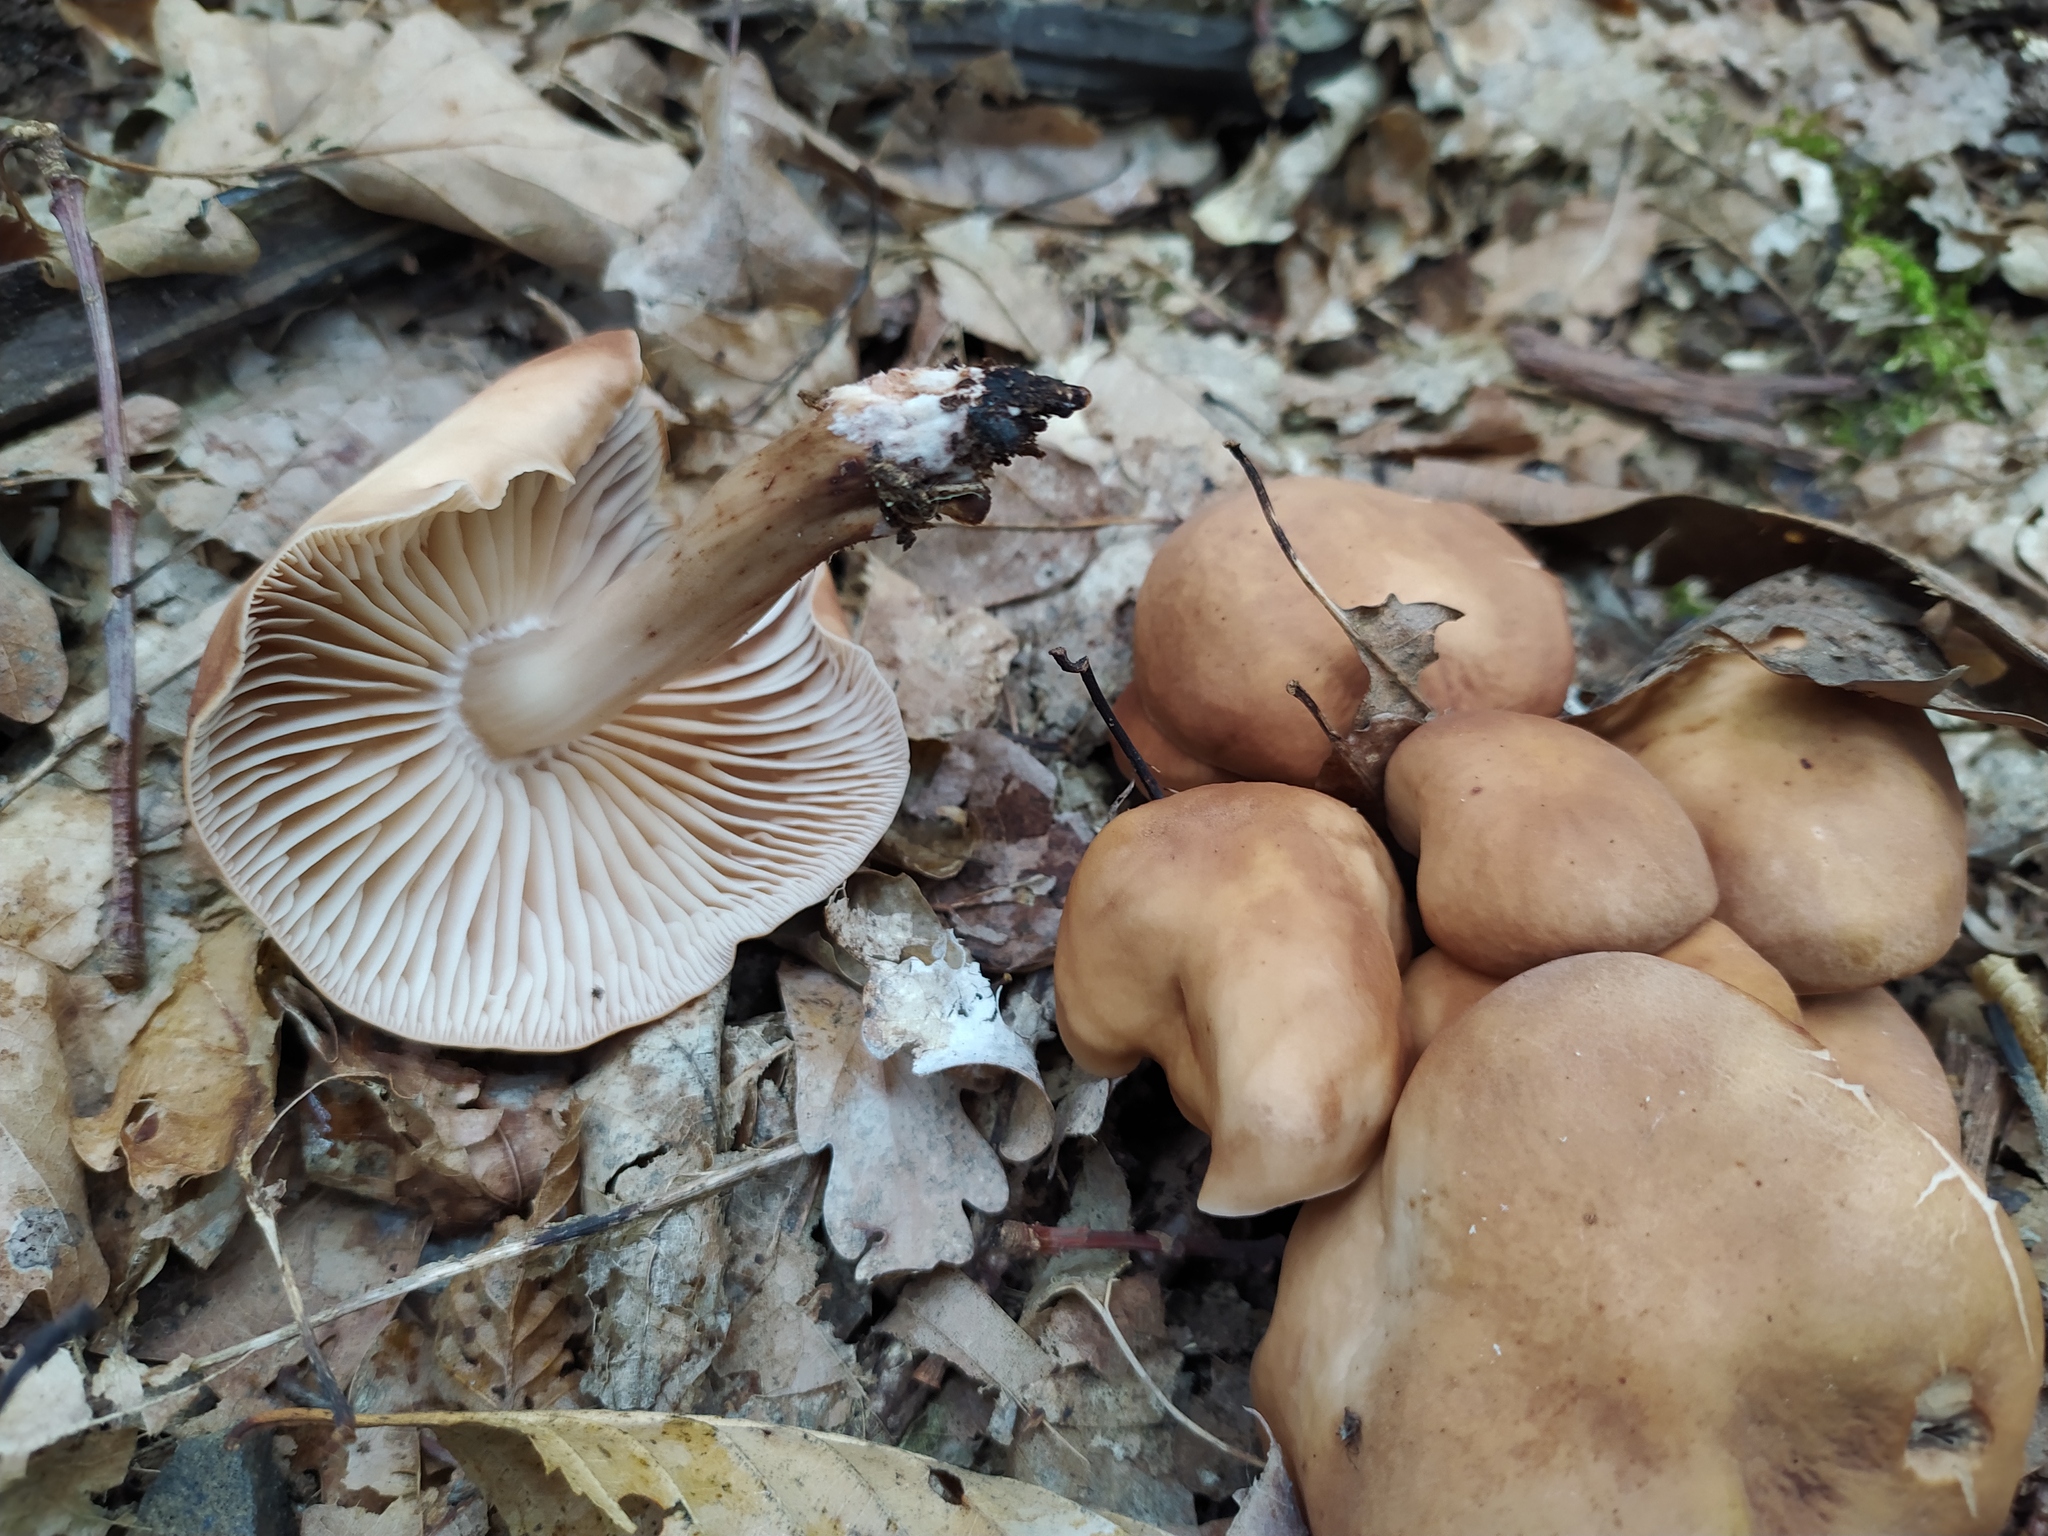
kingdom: Fungi
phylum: Basidiomycota
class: Agaricomycetes
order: Agaricales
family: Omphalotaceae
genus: Gymnopus
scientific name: Gymnopus fusipes
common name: Spindle shank
